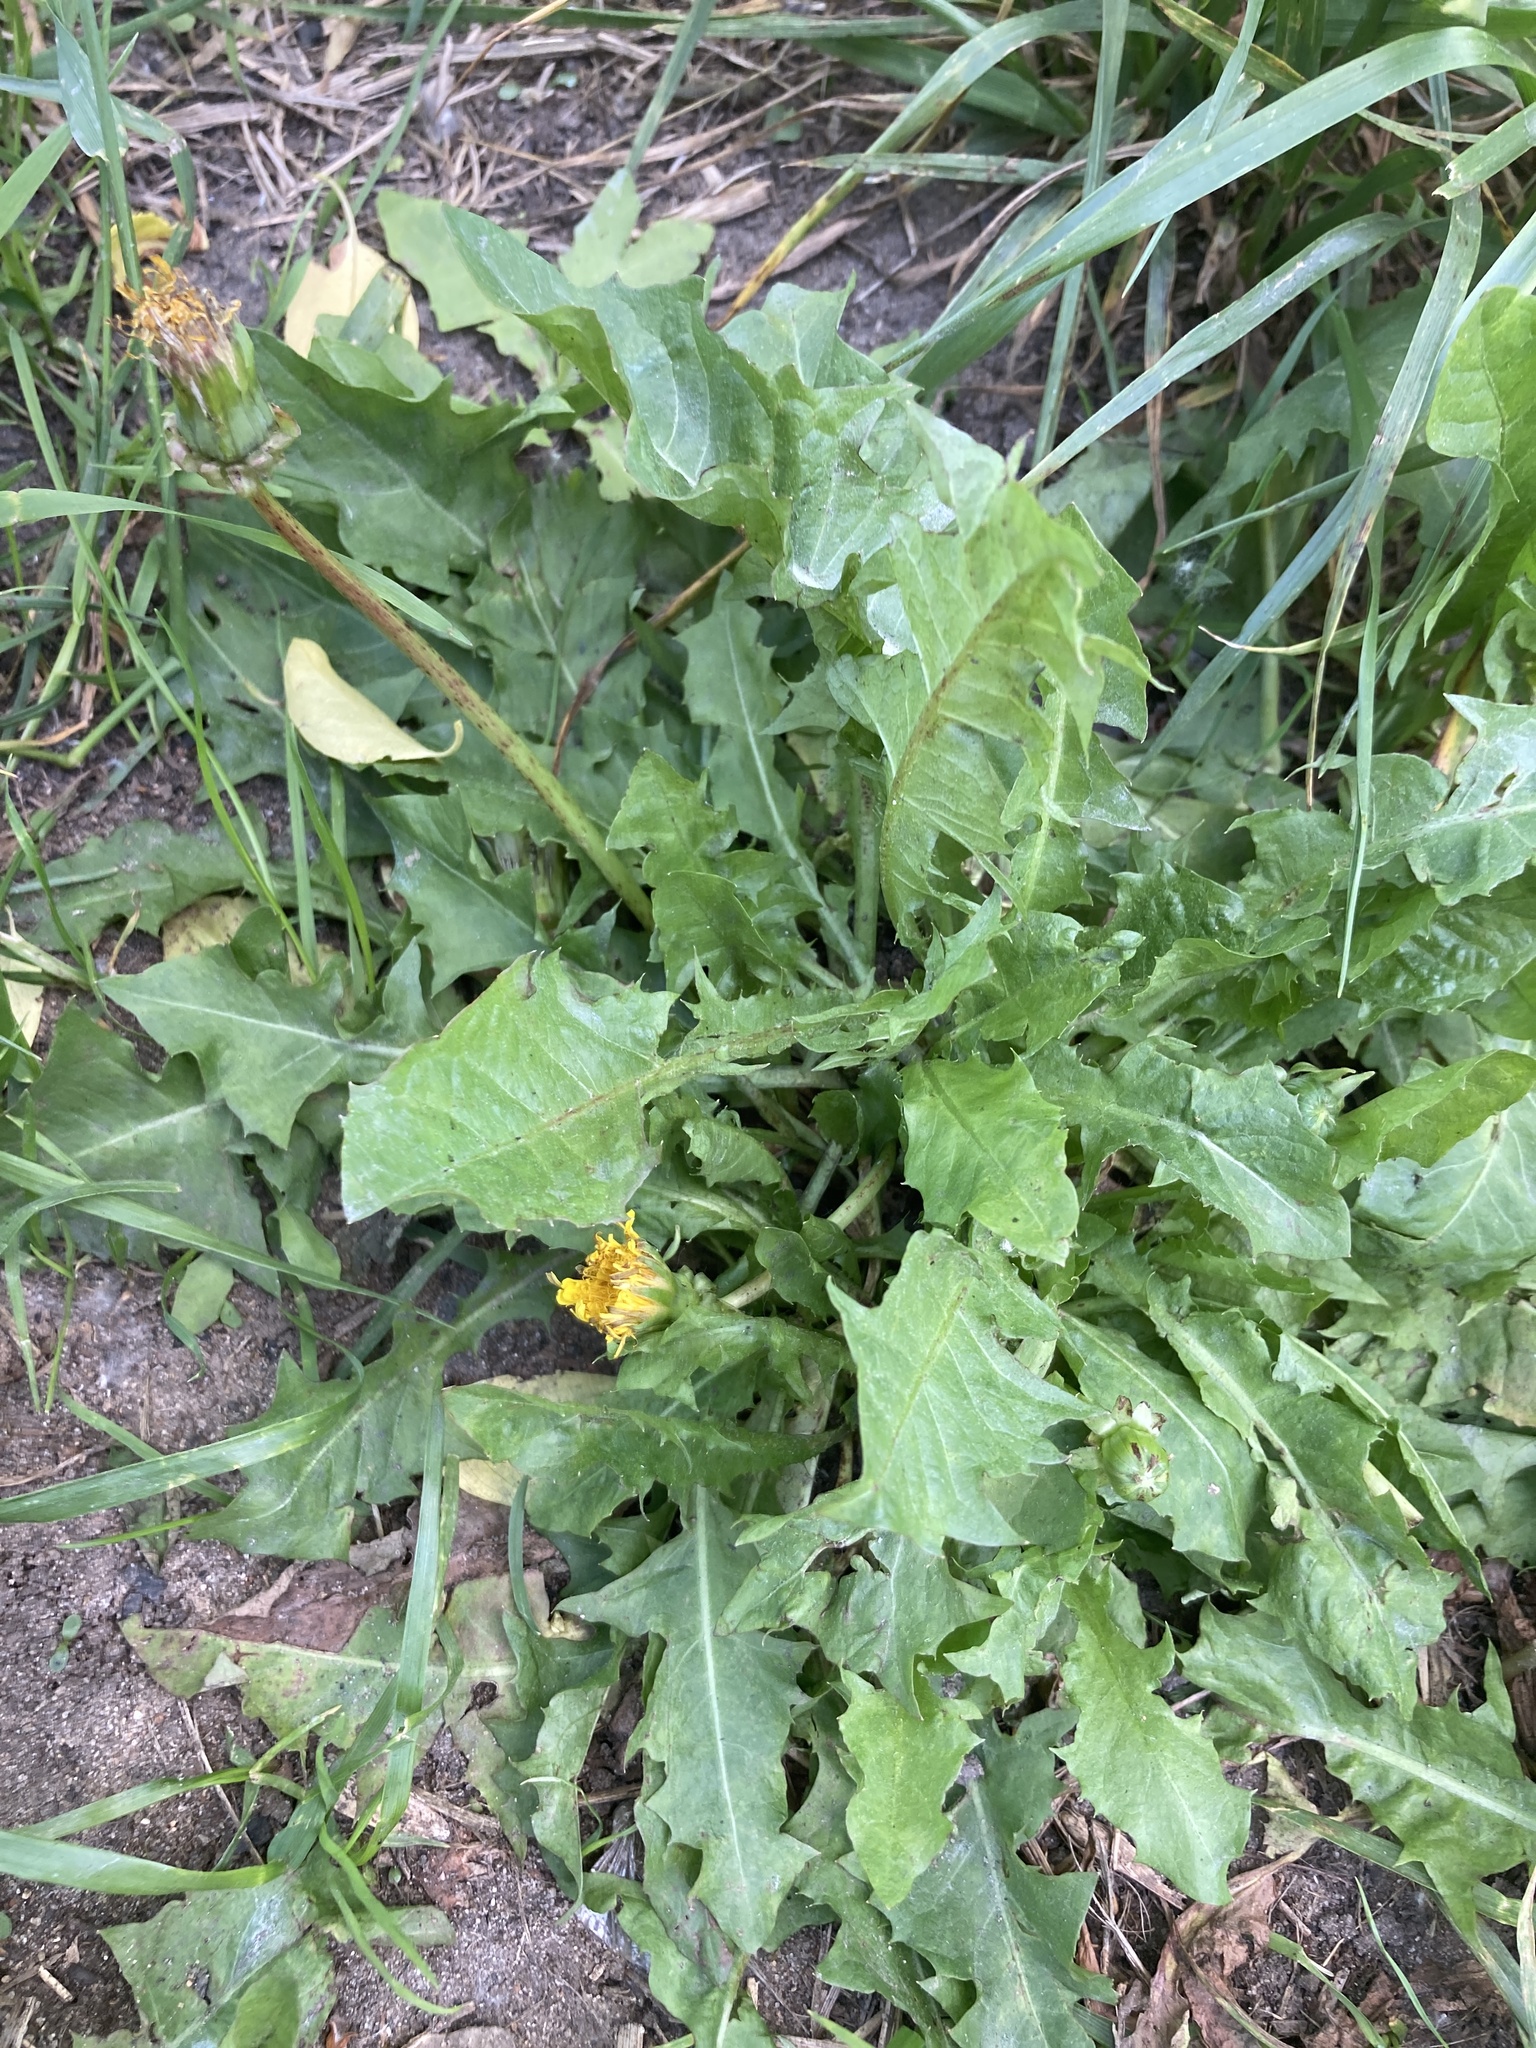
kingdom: Plantae
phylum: Tracheophyta
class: Magnoliopsida
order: Asterales
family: Asteraceae
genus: Taraxacum
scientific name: Taraxacum officinale
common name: Common dandelion
